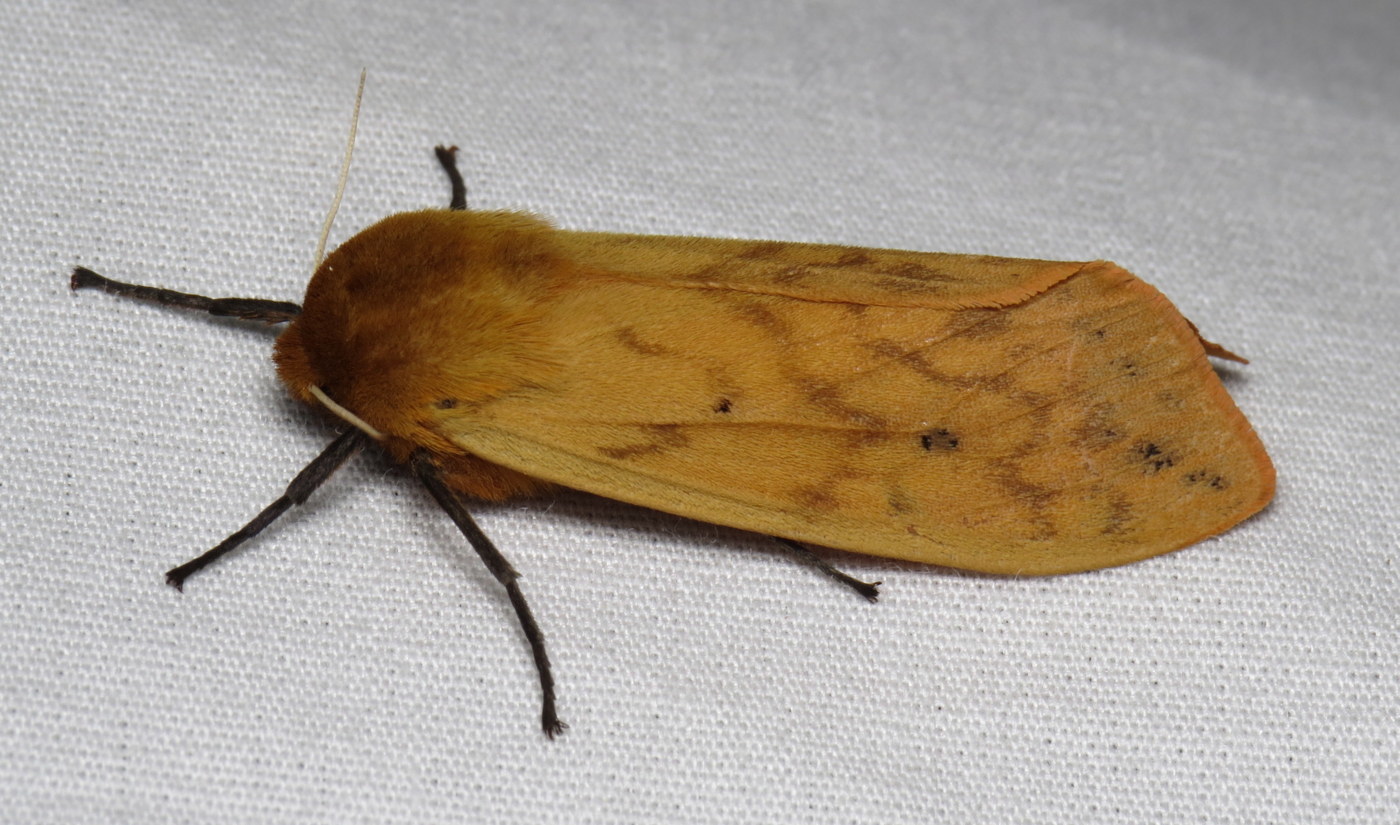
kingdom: Animalia
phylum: Arthropoda
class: Insecta
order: Lepidoptera
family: Erebidae
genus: Pyrrharctia
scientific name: Pyrrharctia isabella
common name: Isabella tiger moth
